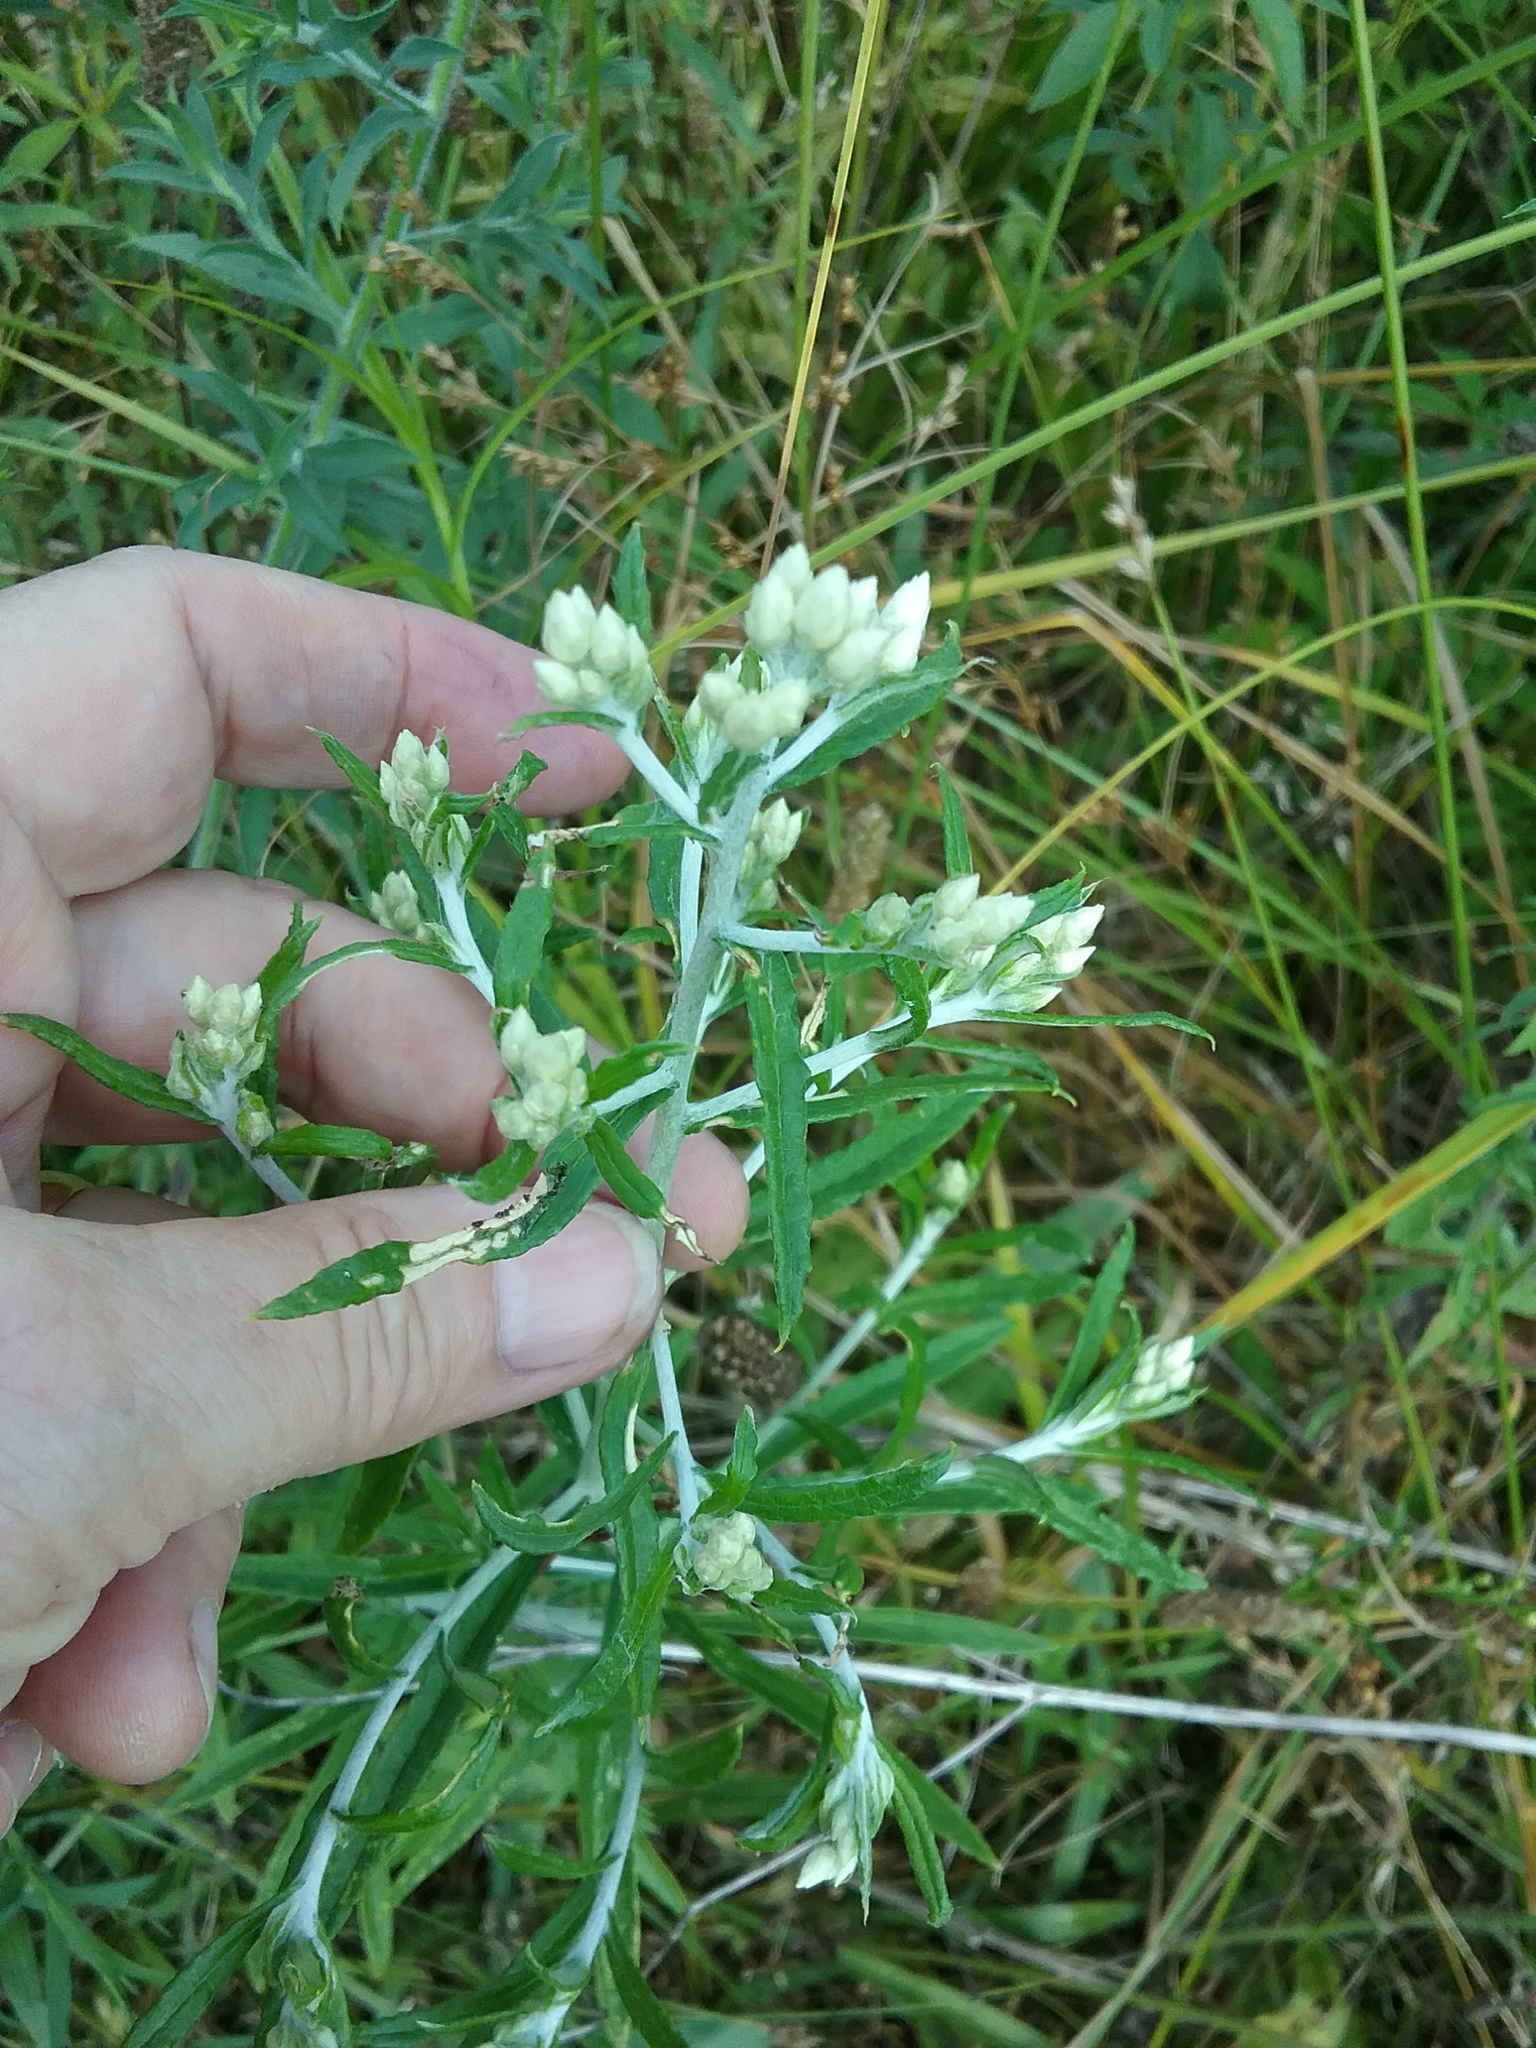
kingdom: Plantae
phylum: Tracheophyta
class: Magnoliopsida
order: Asterales
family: Asteraceae
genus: Pseudognaphalium
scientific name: Pseudognaphalium obtusifolium
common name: Eastern rabbit-tobacco
